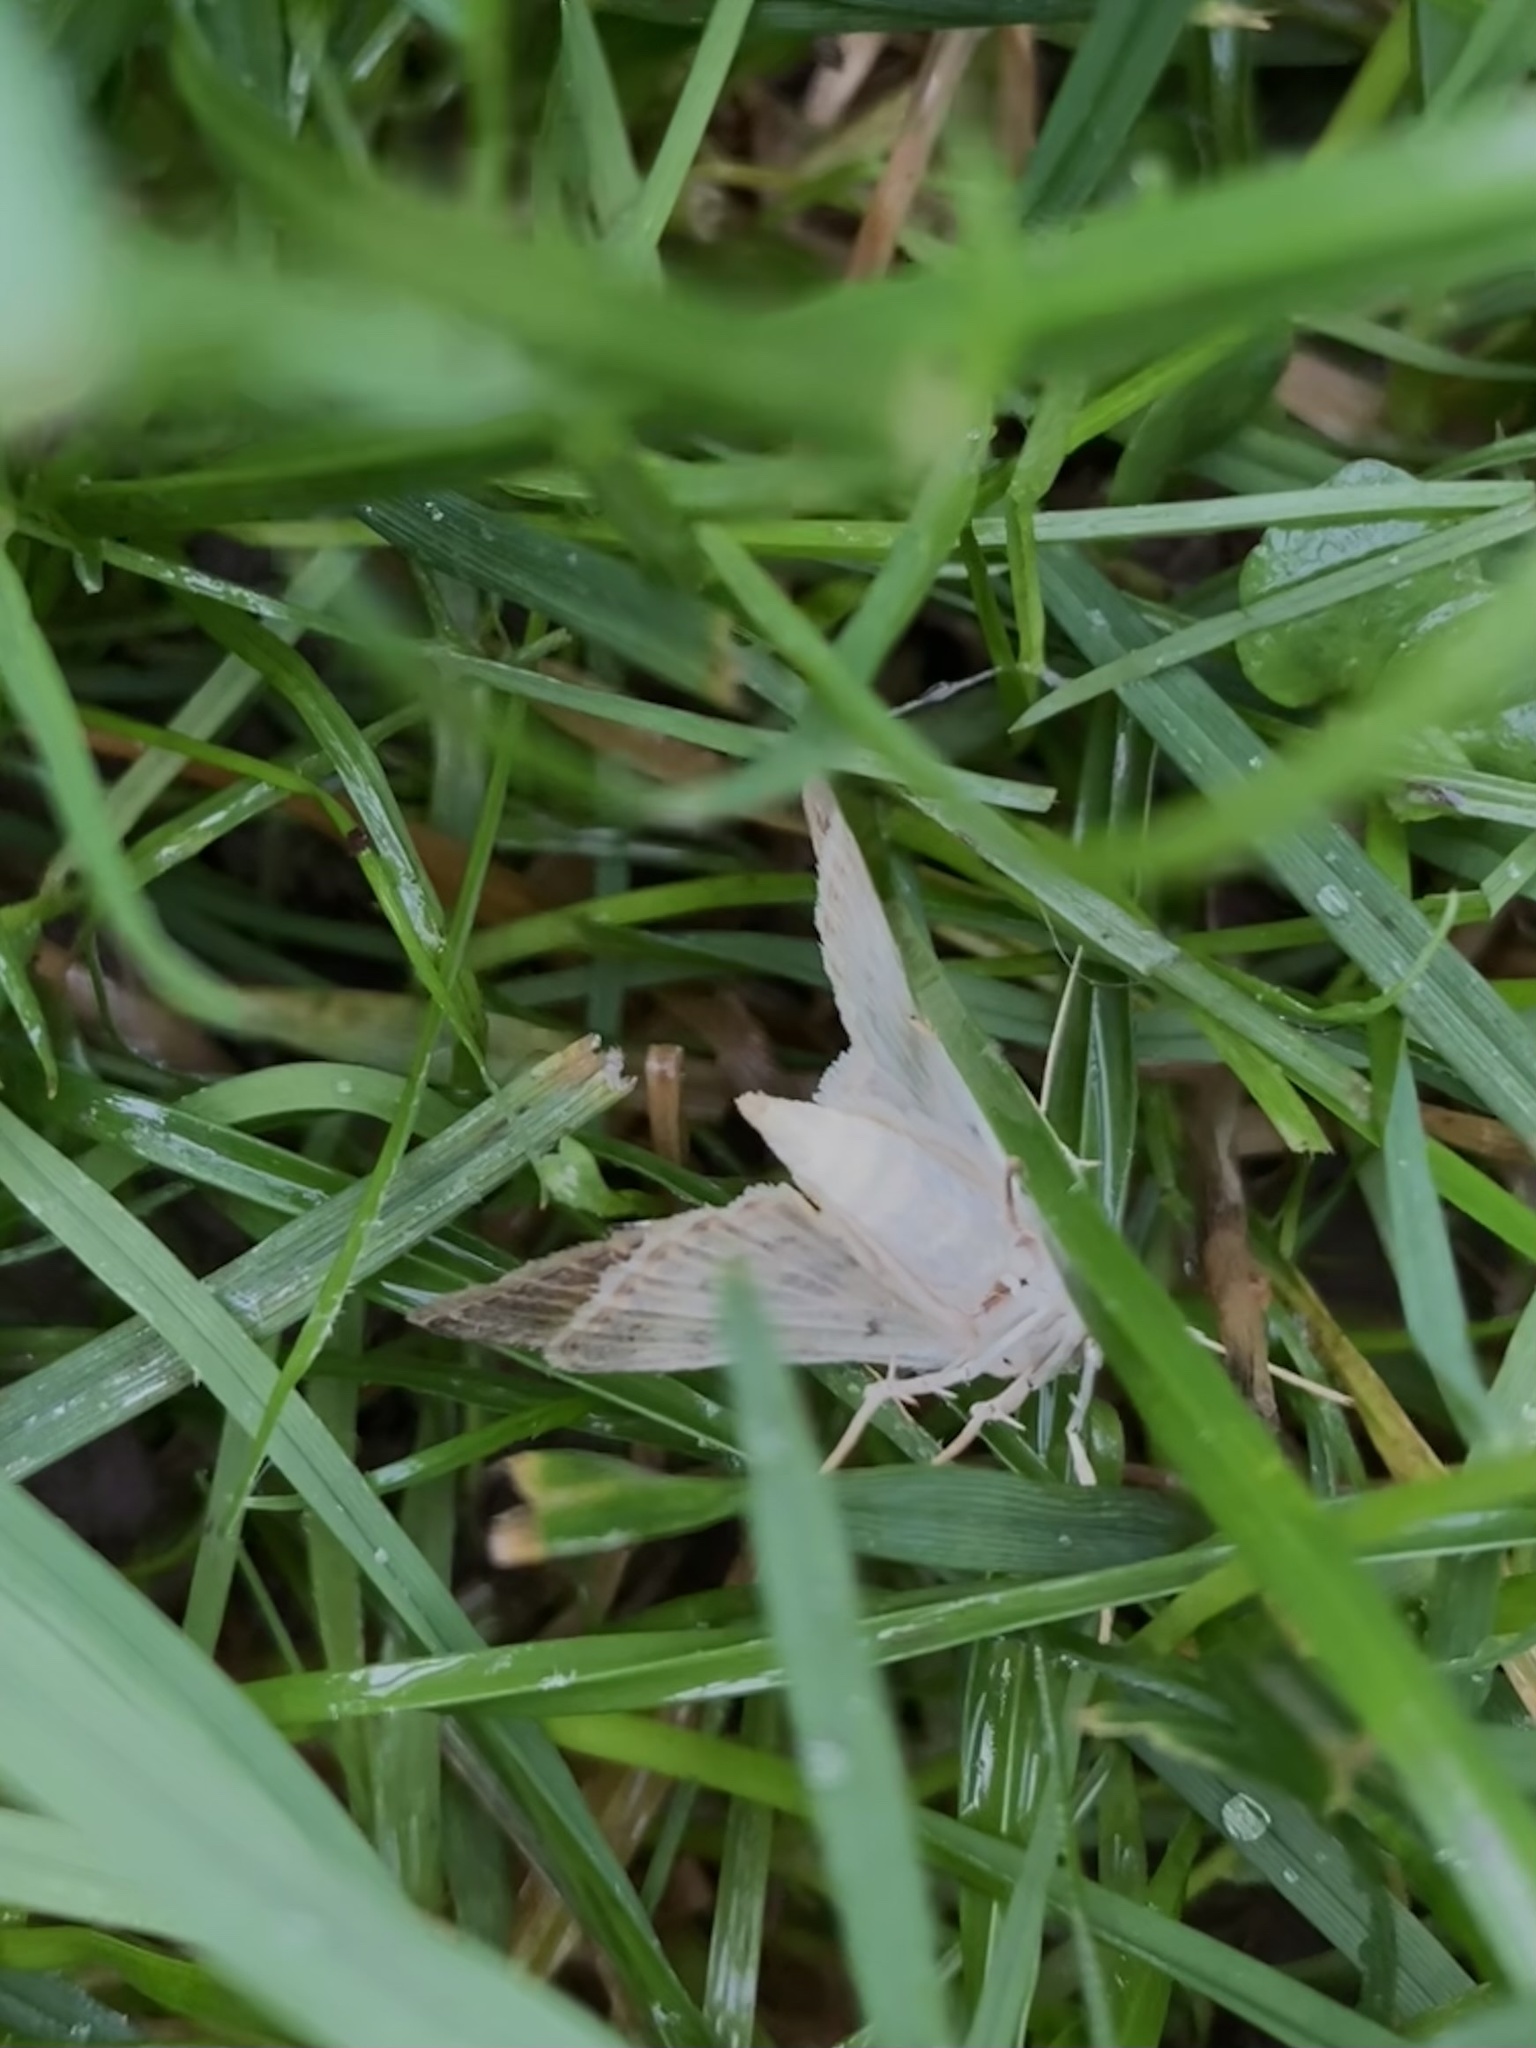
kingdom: Animalia
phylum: Arthropoda
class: Insecta
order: Lepidoptera
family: Crambidae
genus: Patania
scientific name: Patania ruralis
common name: Mother of pearl
